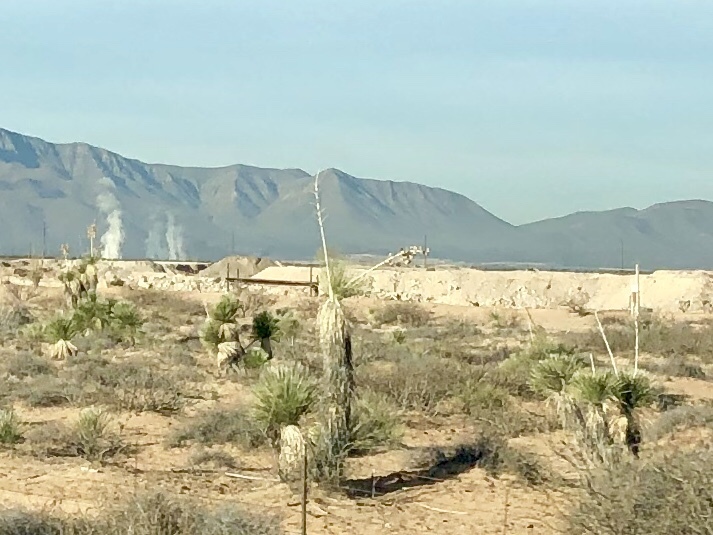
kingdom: Plantae
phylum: Tracheophyta
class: Liliopsida
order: Asparagales
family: Asparagaceae
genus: Yucca
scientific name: Yucca elata
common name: Palmella
